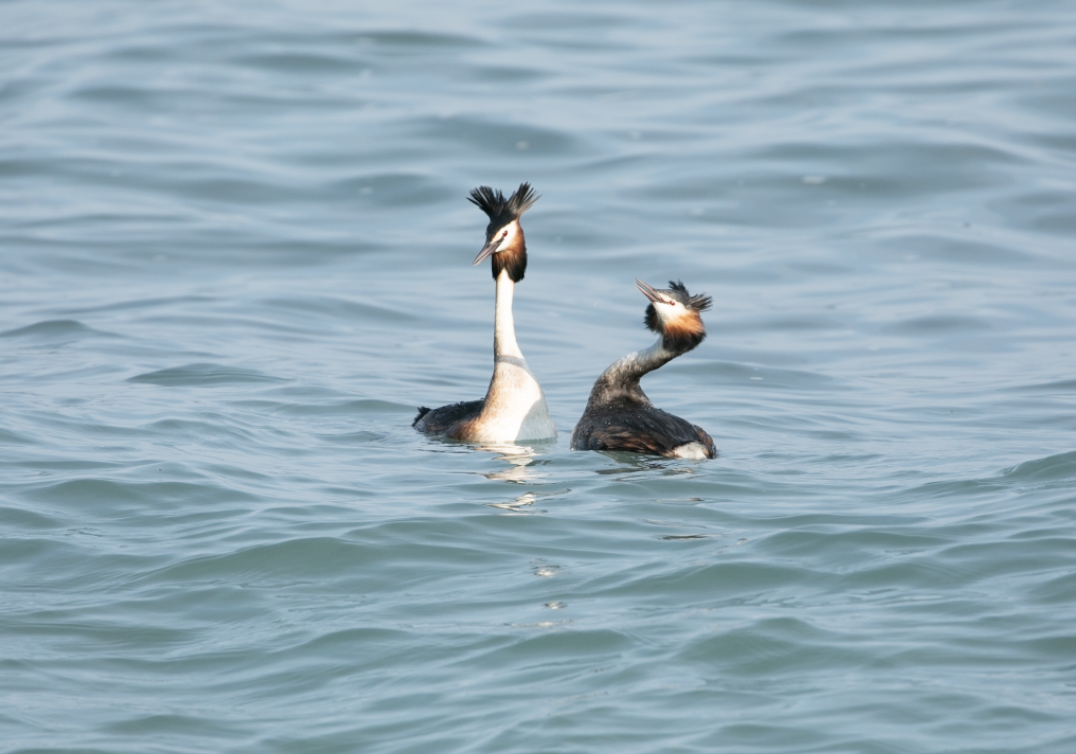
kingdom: Animalia
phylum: Chordata
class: Aves
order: Podicipediformes
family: Podicipedidae
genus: Podiceps
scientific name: Podiceps cristatus
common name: Great crested grebe
